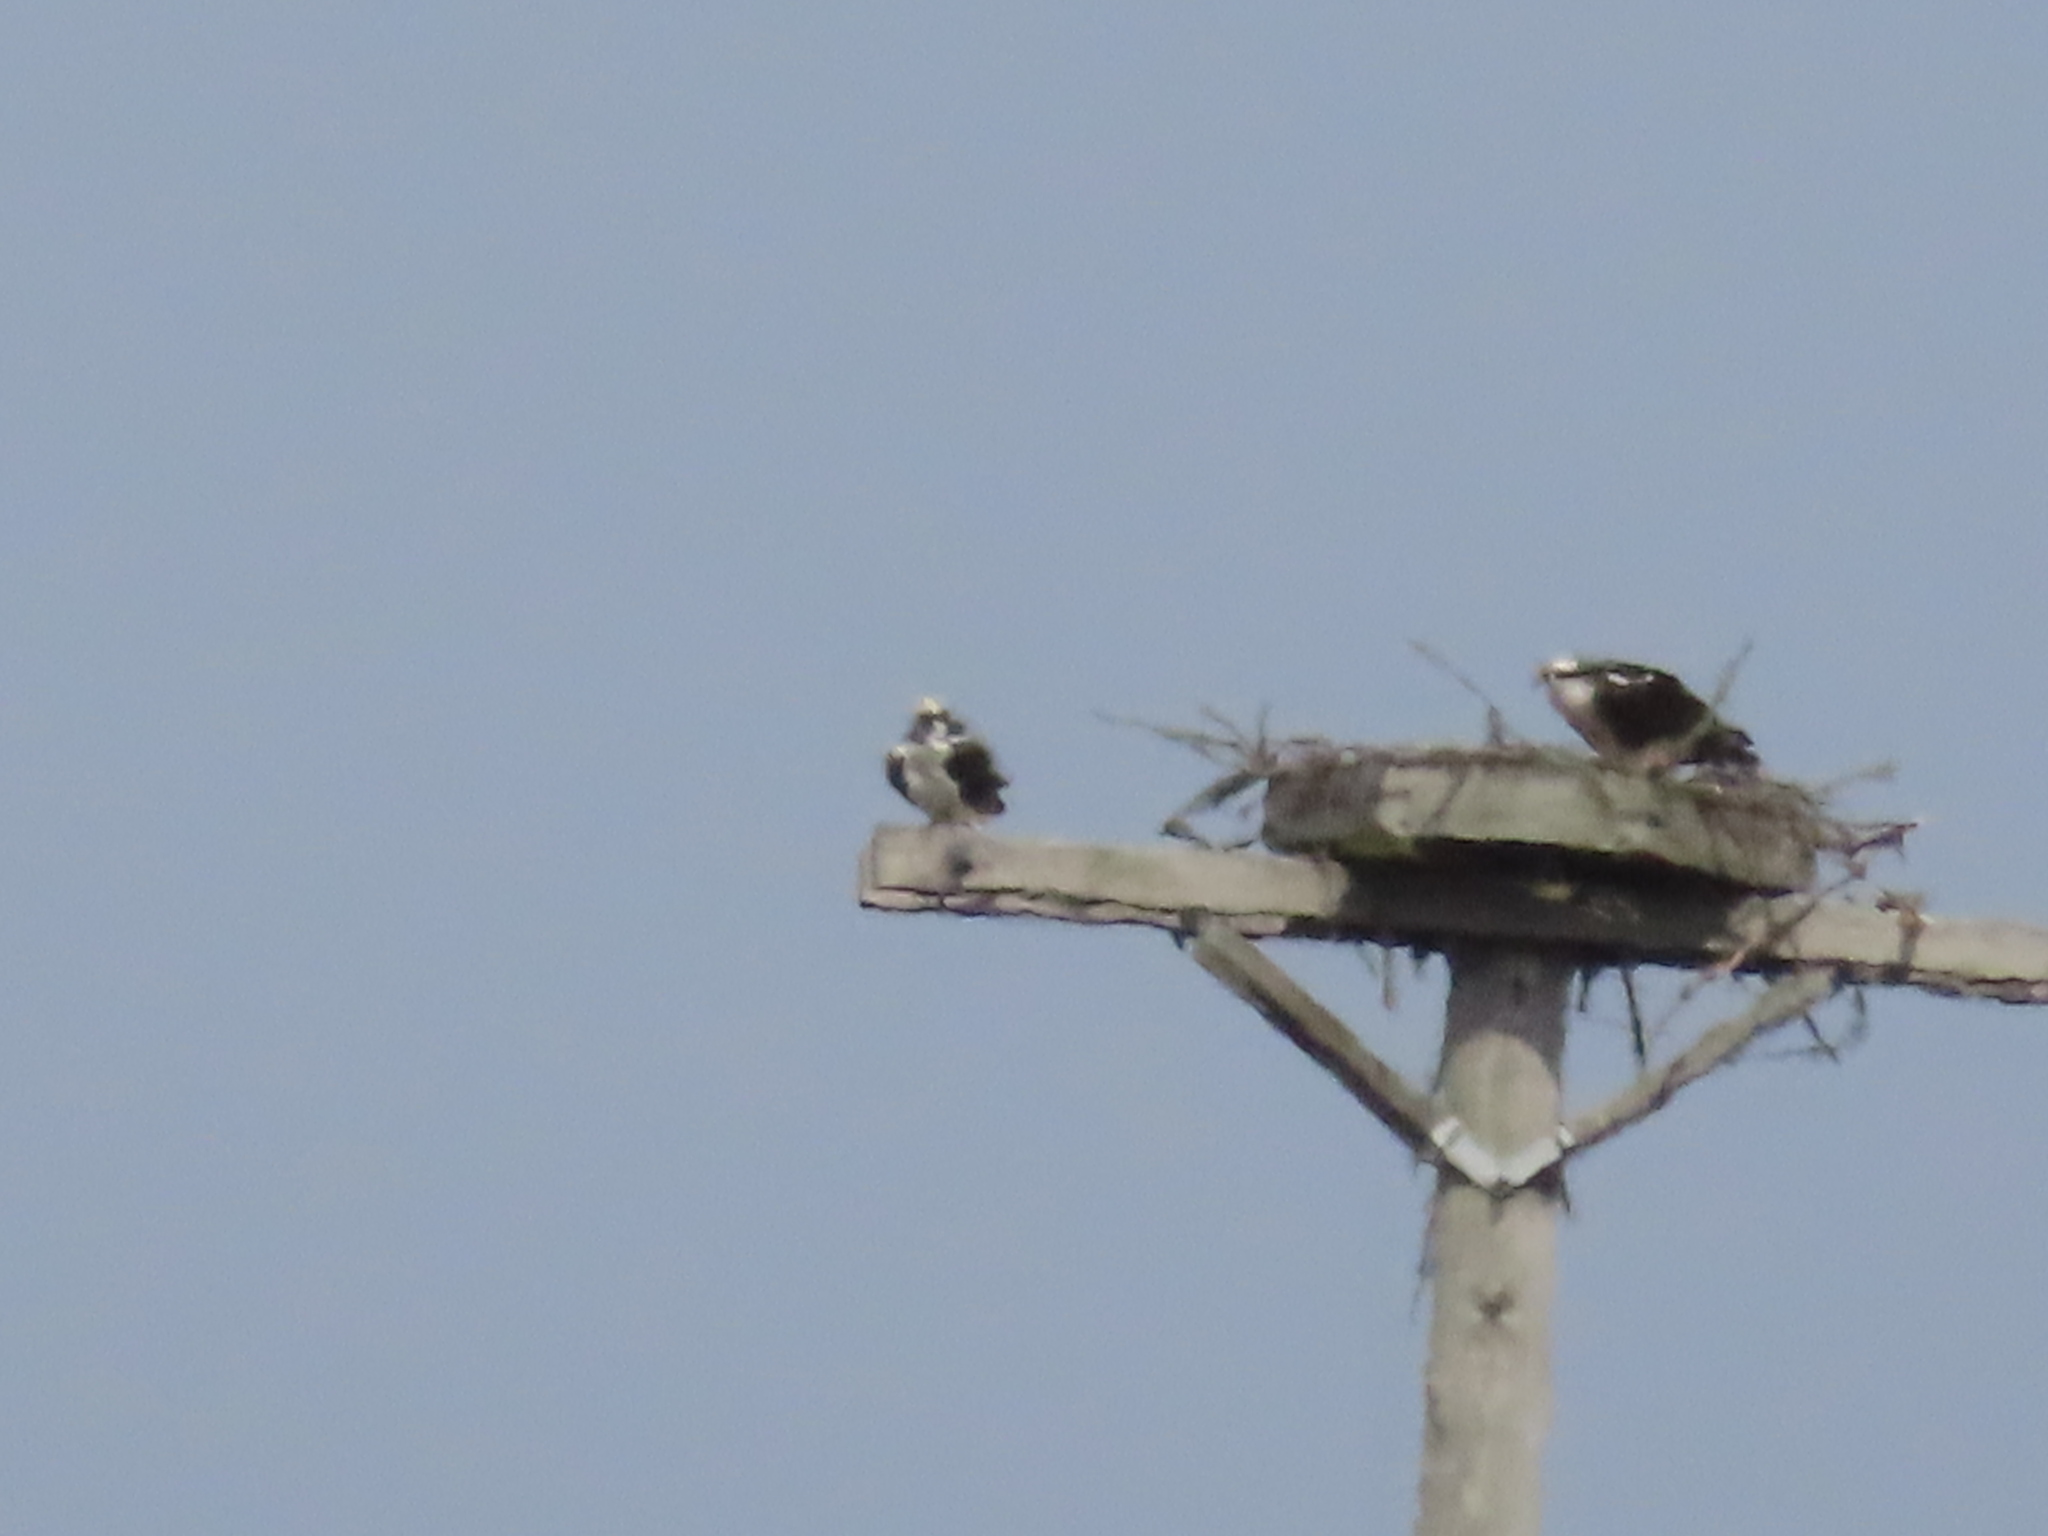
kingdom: Animalia
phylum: Chordata
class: Aves
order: Accipitriformes
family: Pandionidae
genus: Pandion
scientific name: Pandion haliaetus
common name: Osprey
